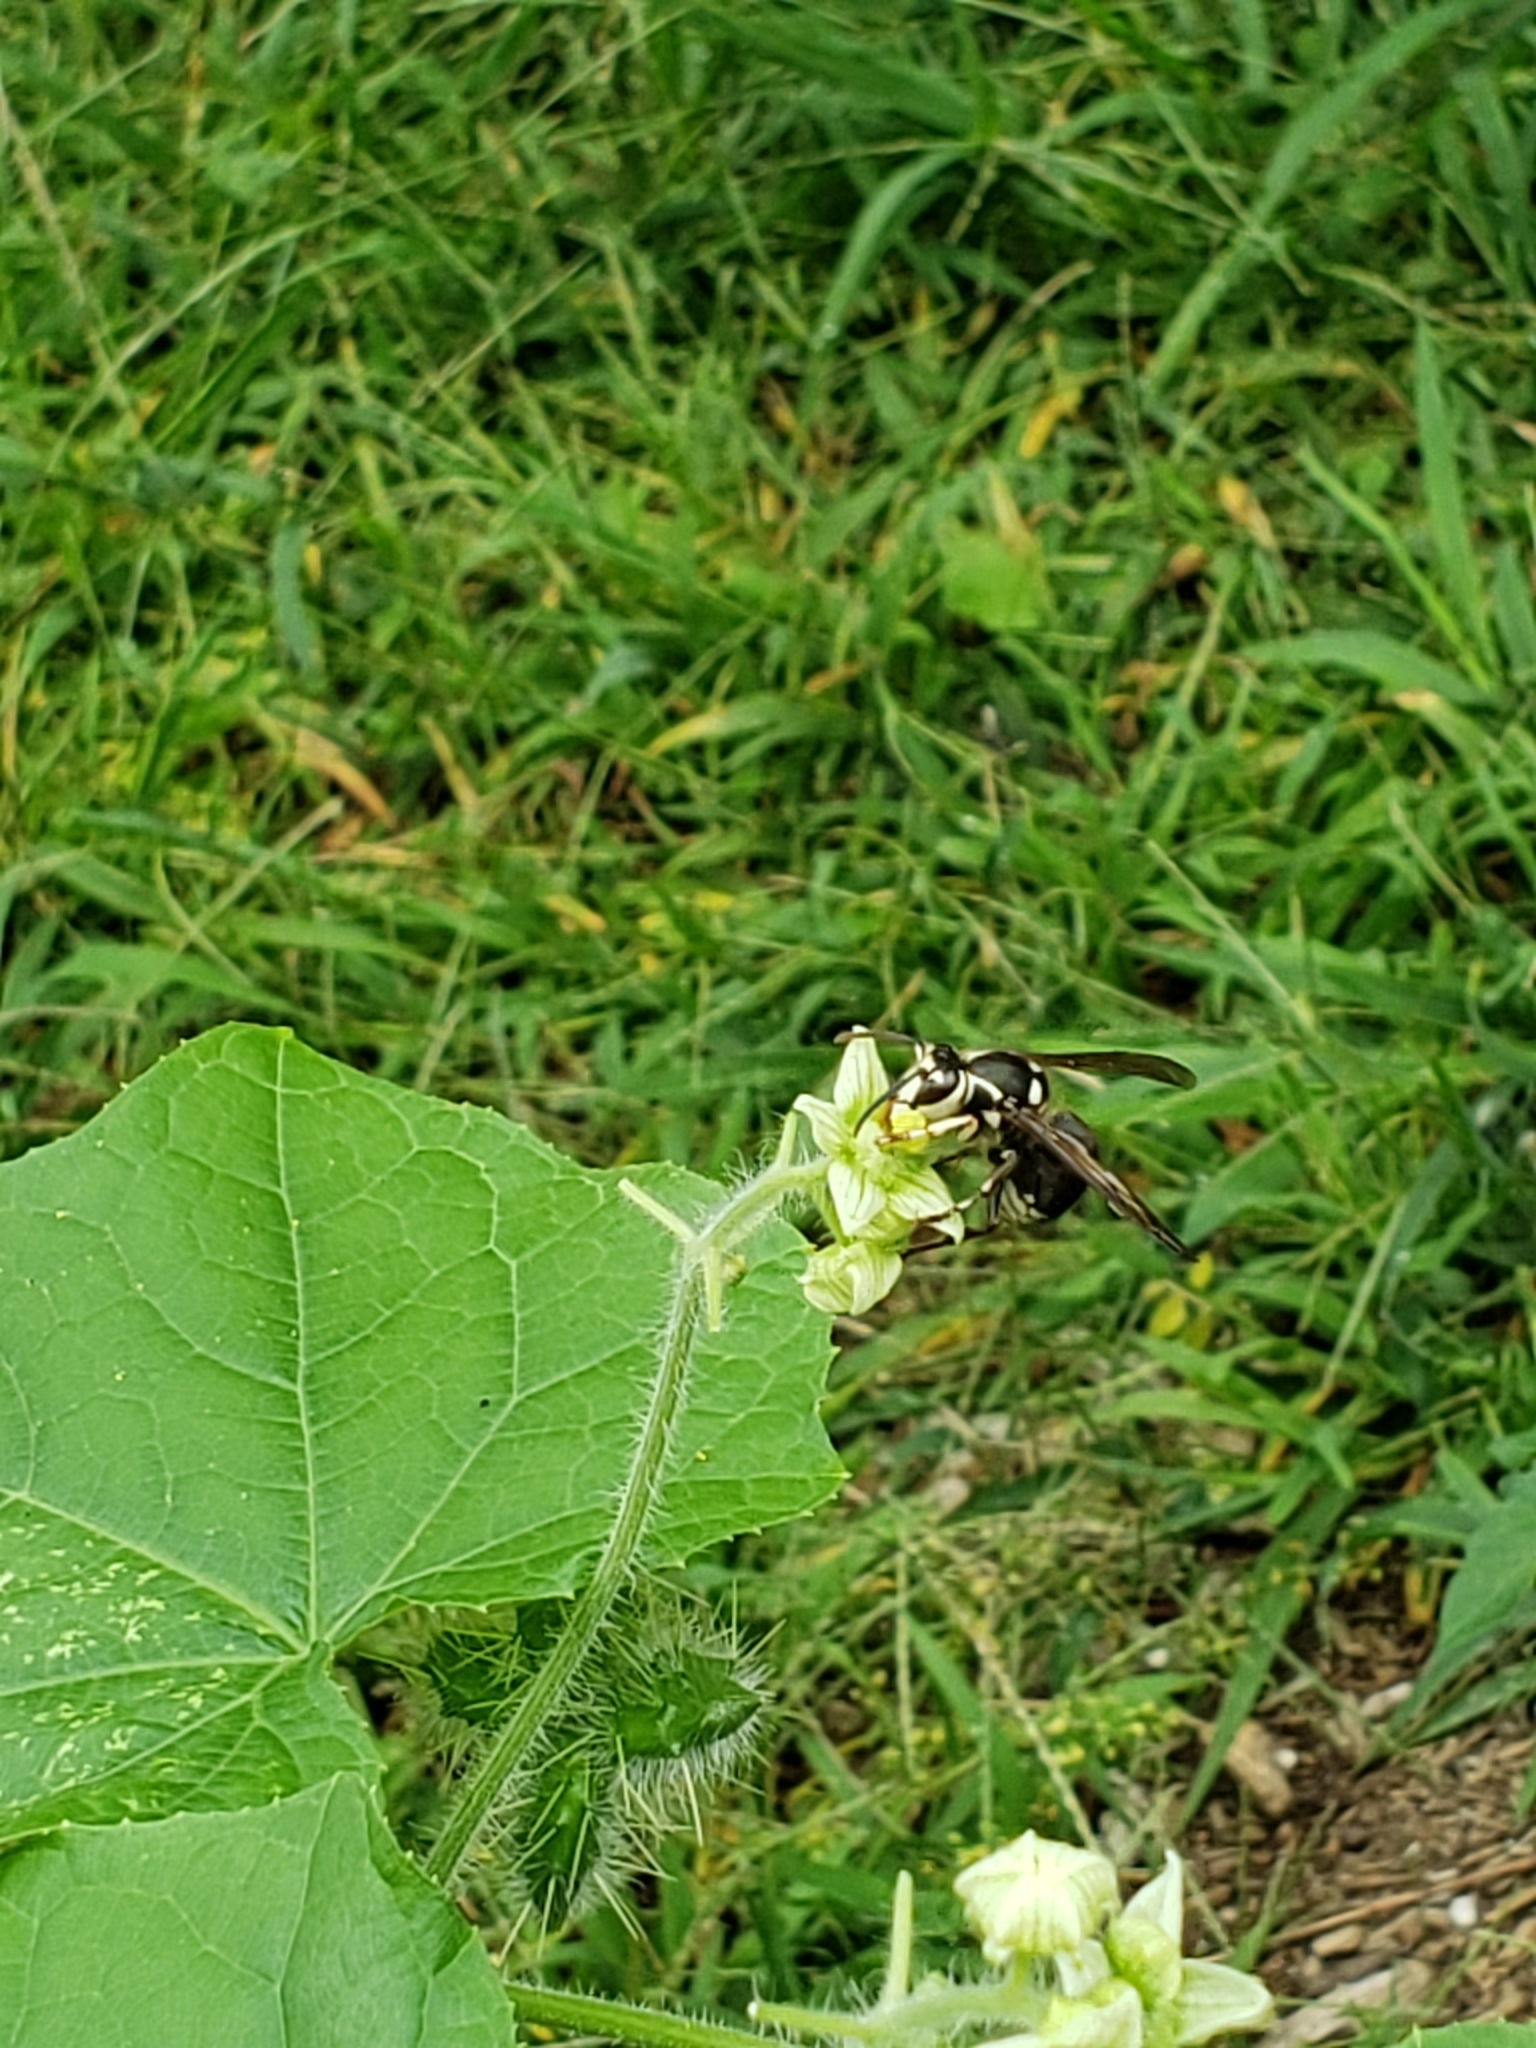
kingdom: Animalia
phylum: Arthropoda
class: Insecta
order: Hymenoptera
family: Vespidae
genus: Dolichovespula
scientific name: Dolichovespula maculata
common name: Bald-faced hornet
